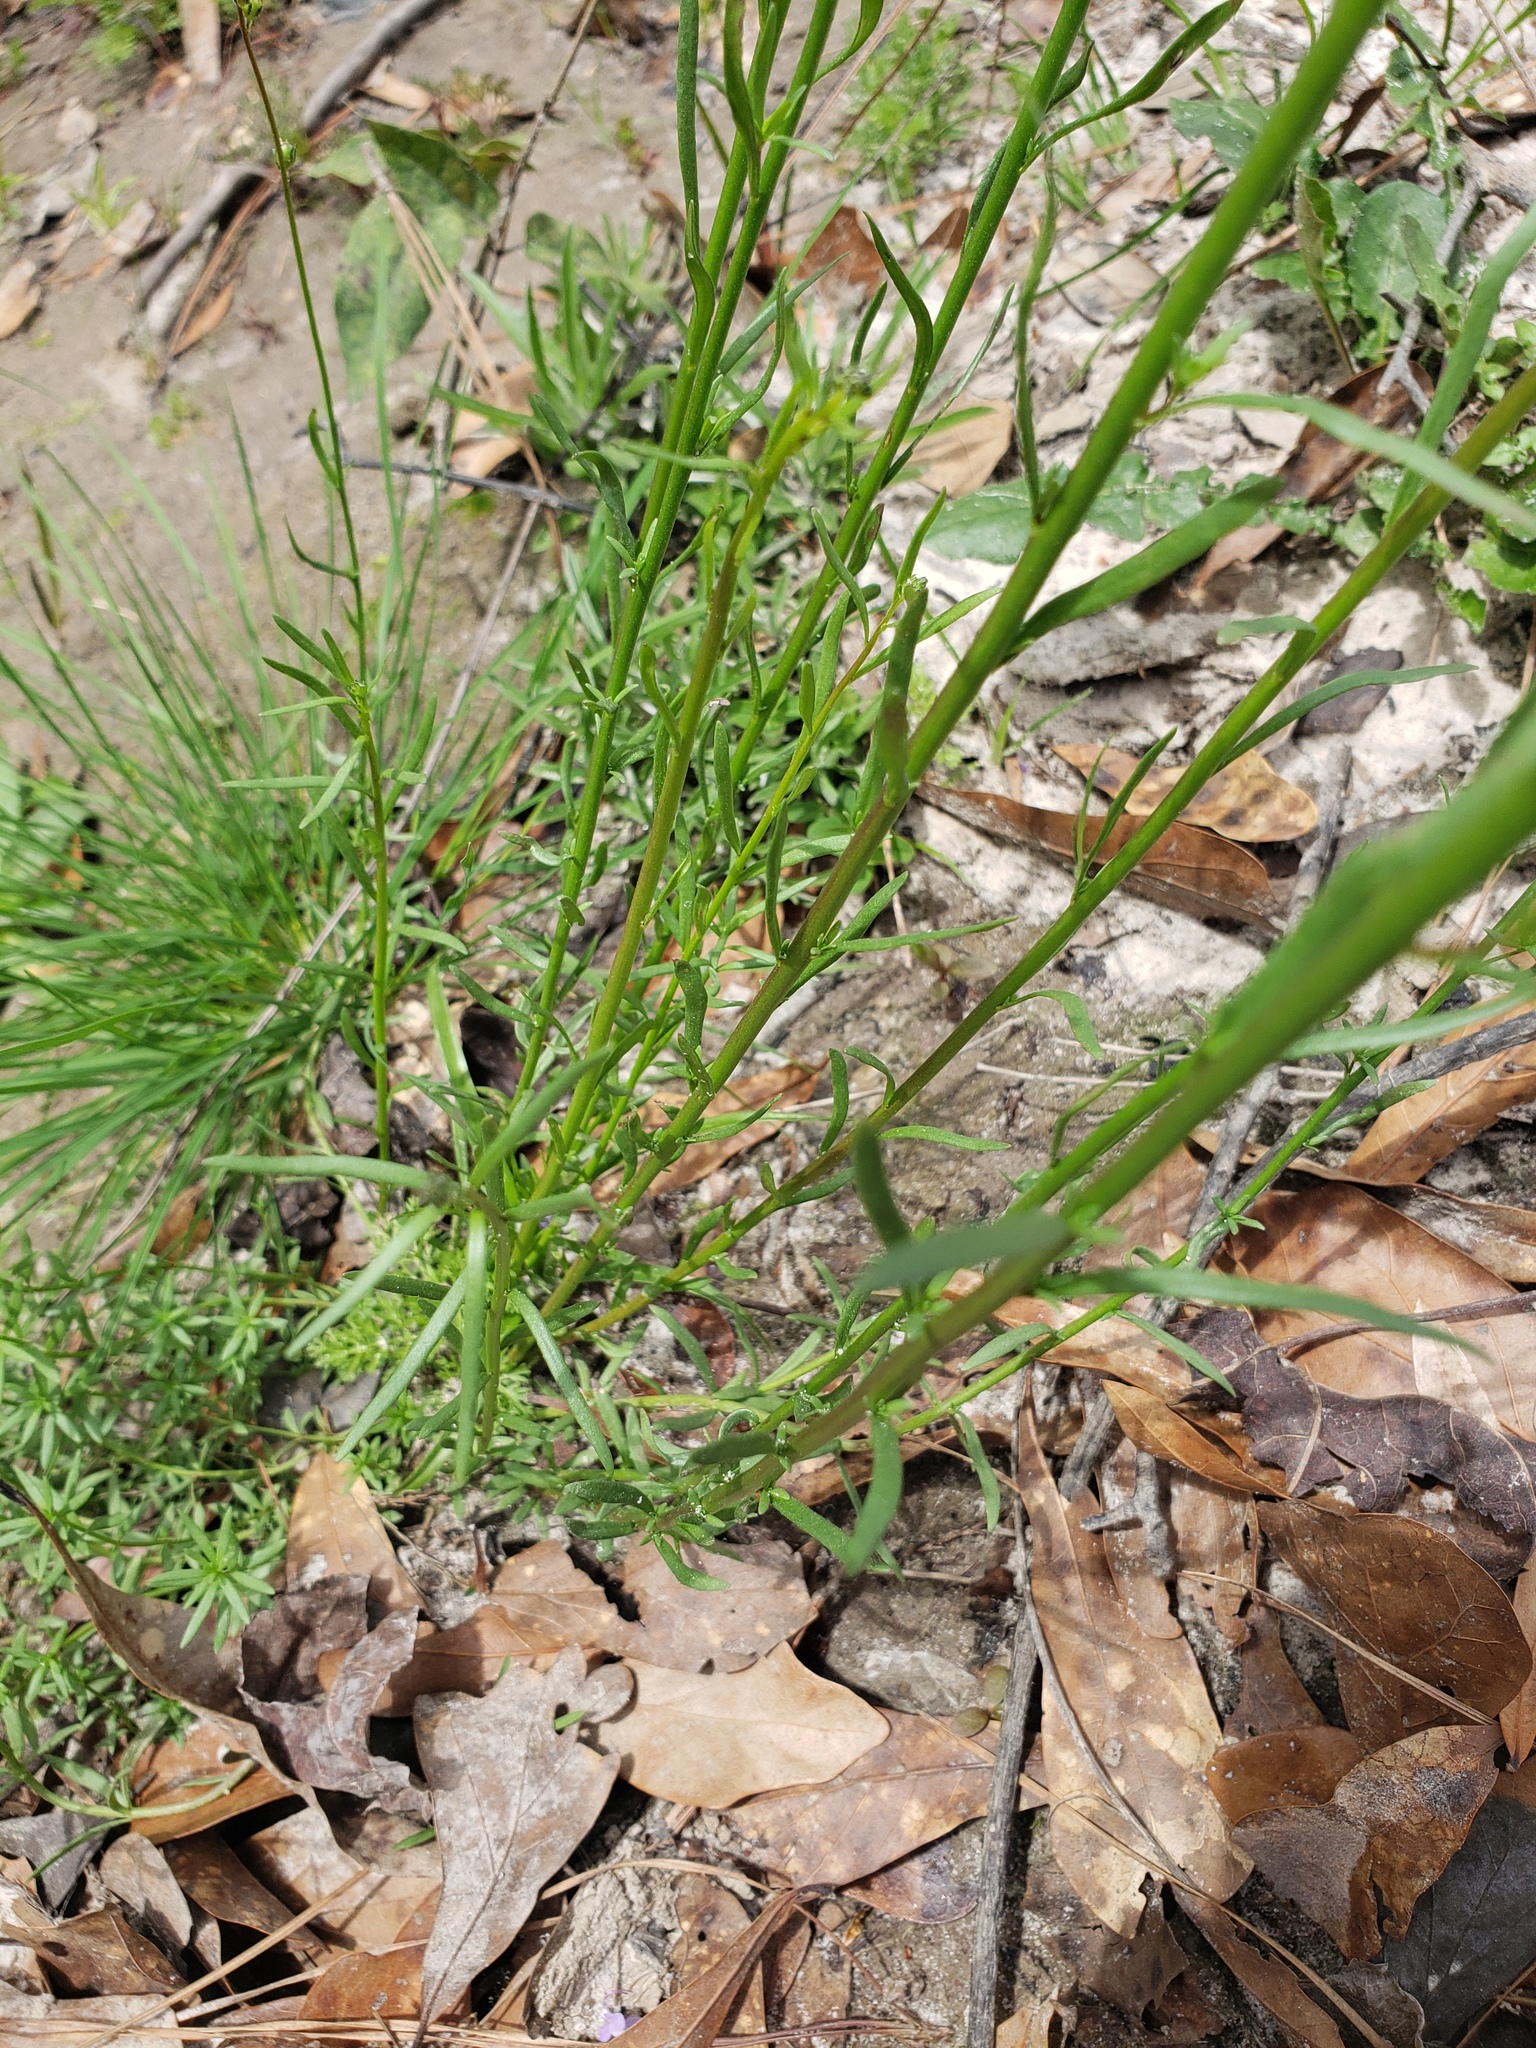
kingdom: Plantae
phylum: Tracheophyta
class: Magnoliopsida
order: Lamiales
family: Plantaginaceae
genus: Nuttallanthus
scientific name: Nuttallanthus canadensis
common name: Blue toadflax
